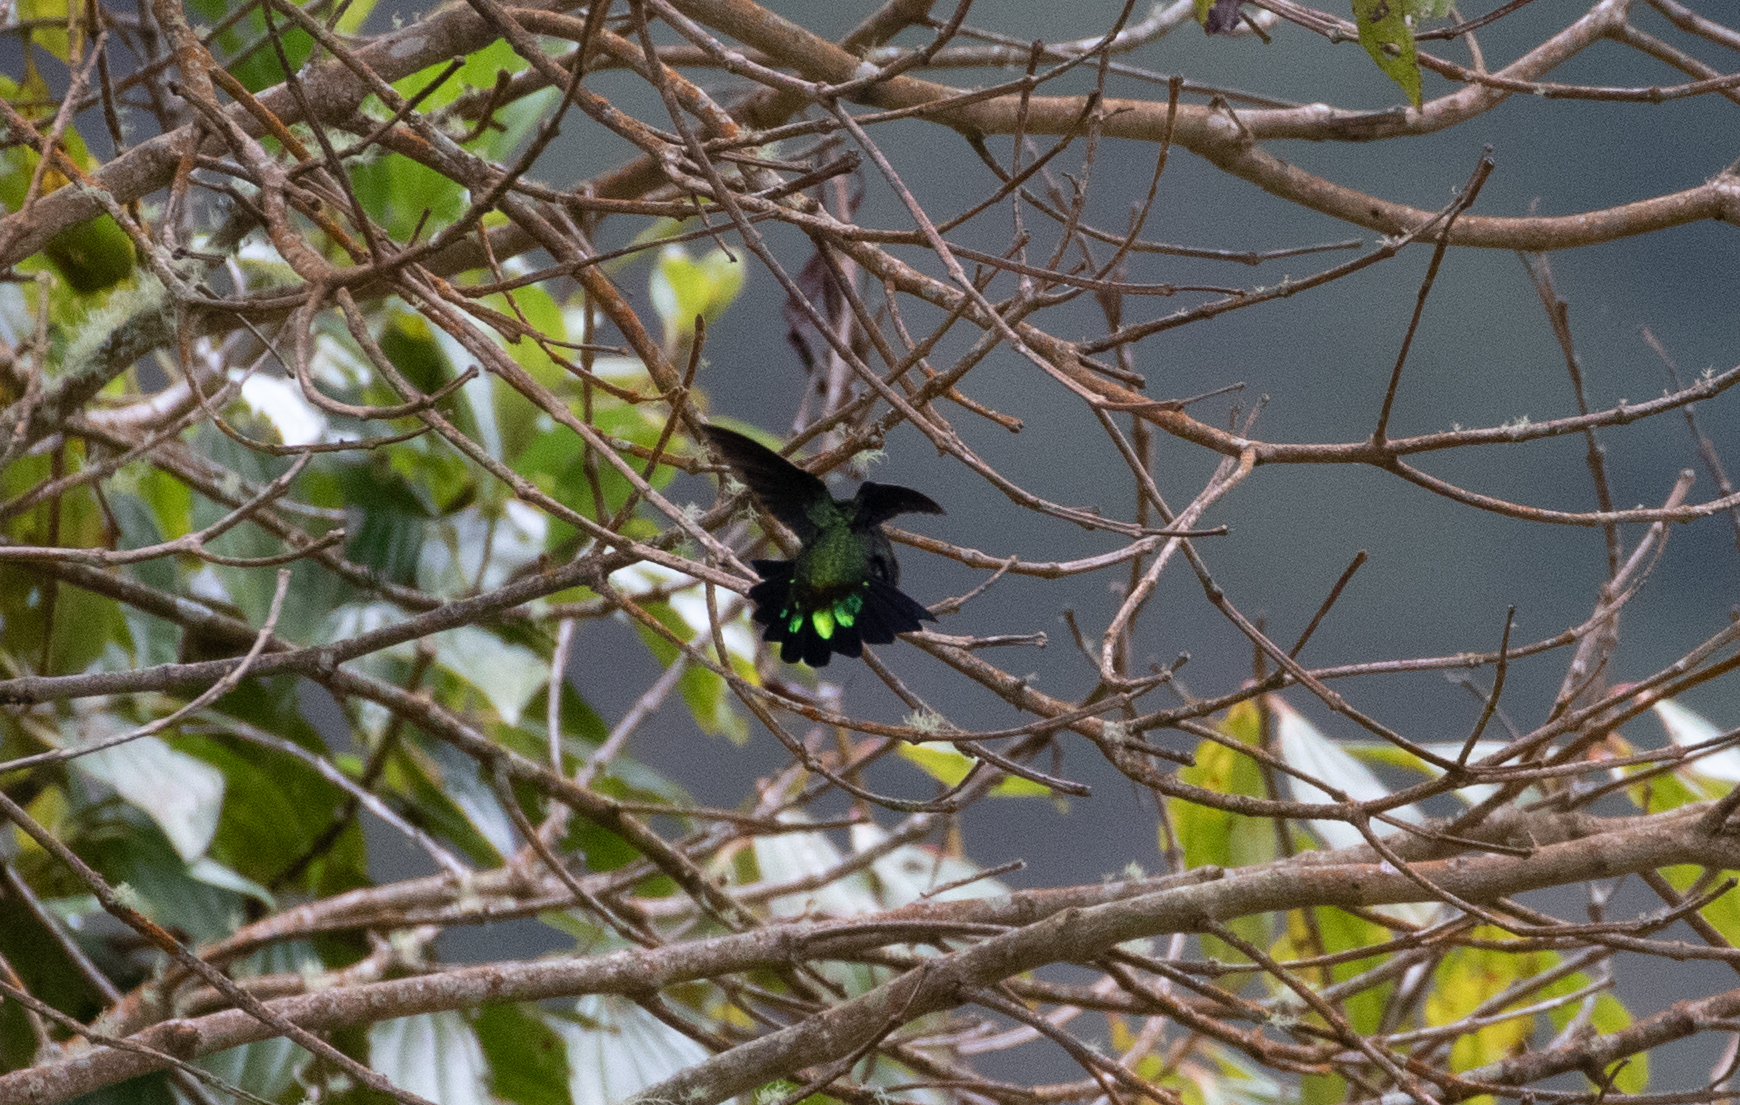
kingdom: Animalia
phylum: Chordata
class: Aves
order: Apodiformes
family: Trochilidae
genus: Eriocnemis
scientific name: Eriocnemis derbyi
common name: Black-thighed puffleg
